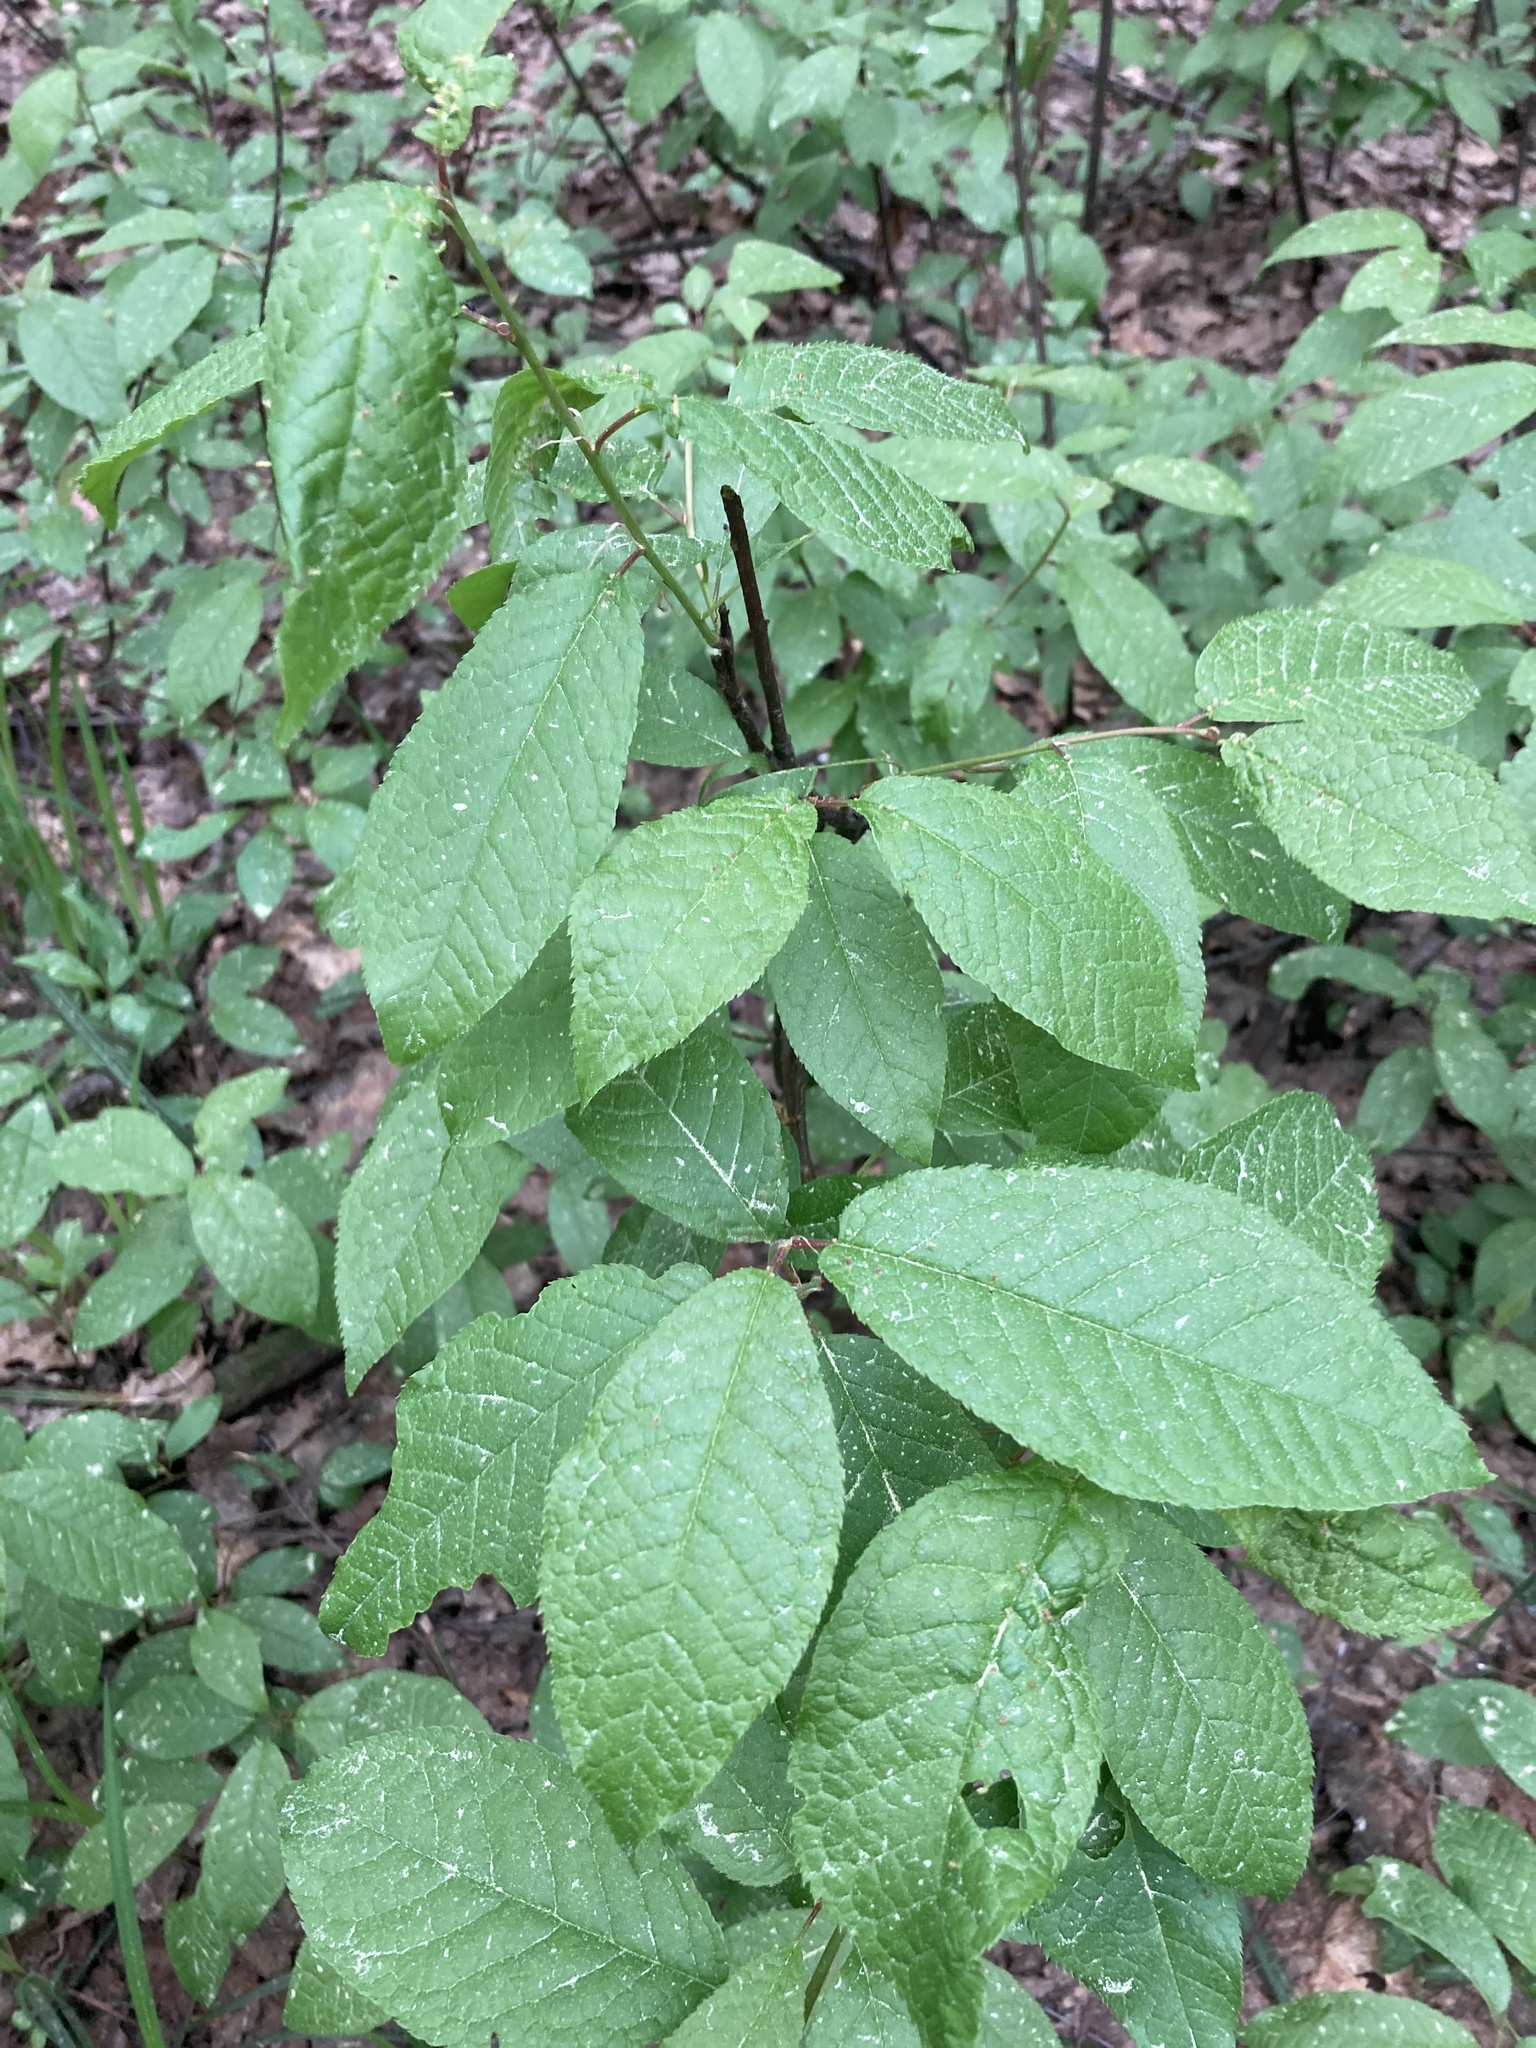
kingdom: Plantae
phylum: Tracheophyta
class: Magnoliopsida
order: Rosales
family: Rosaceae
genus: Prunus
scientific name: Prunus padus
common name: Bird cherry
